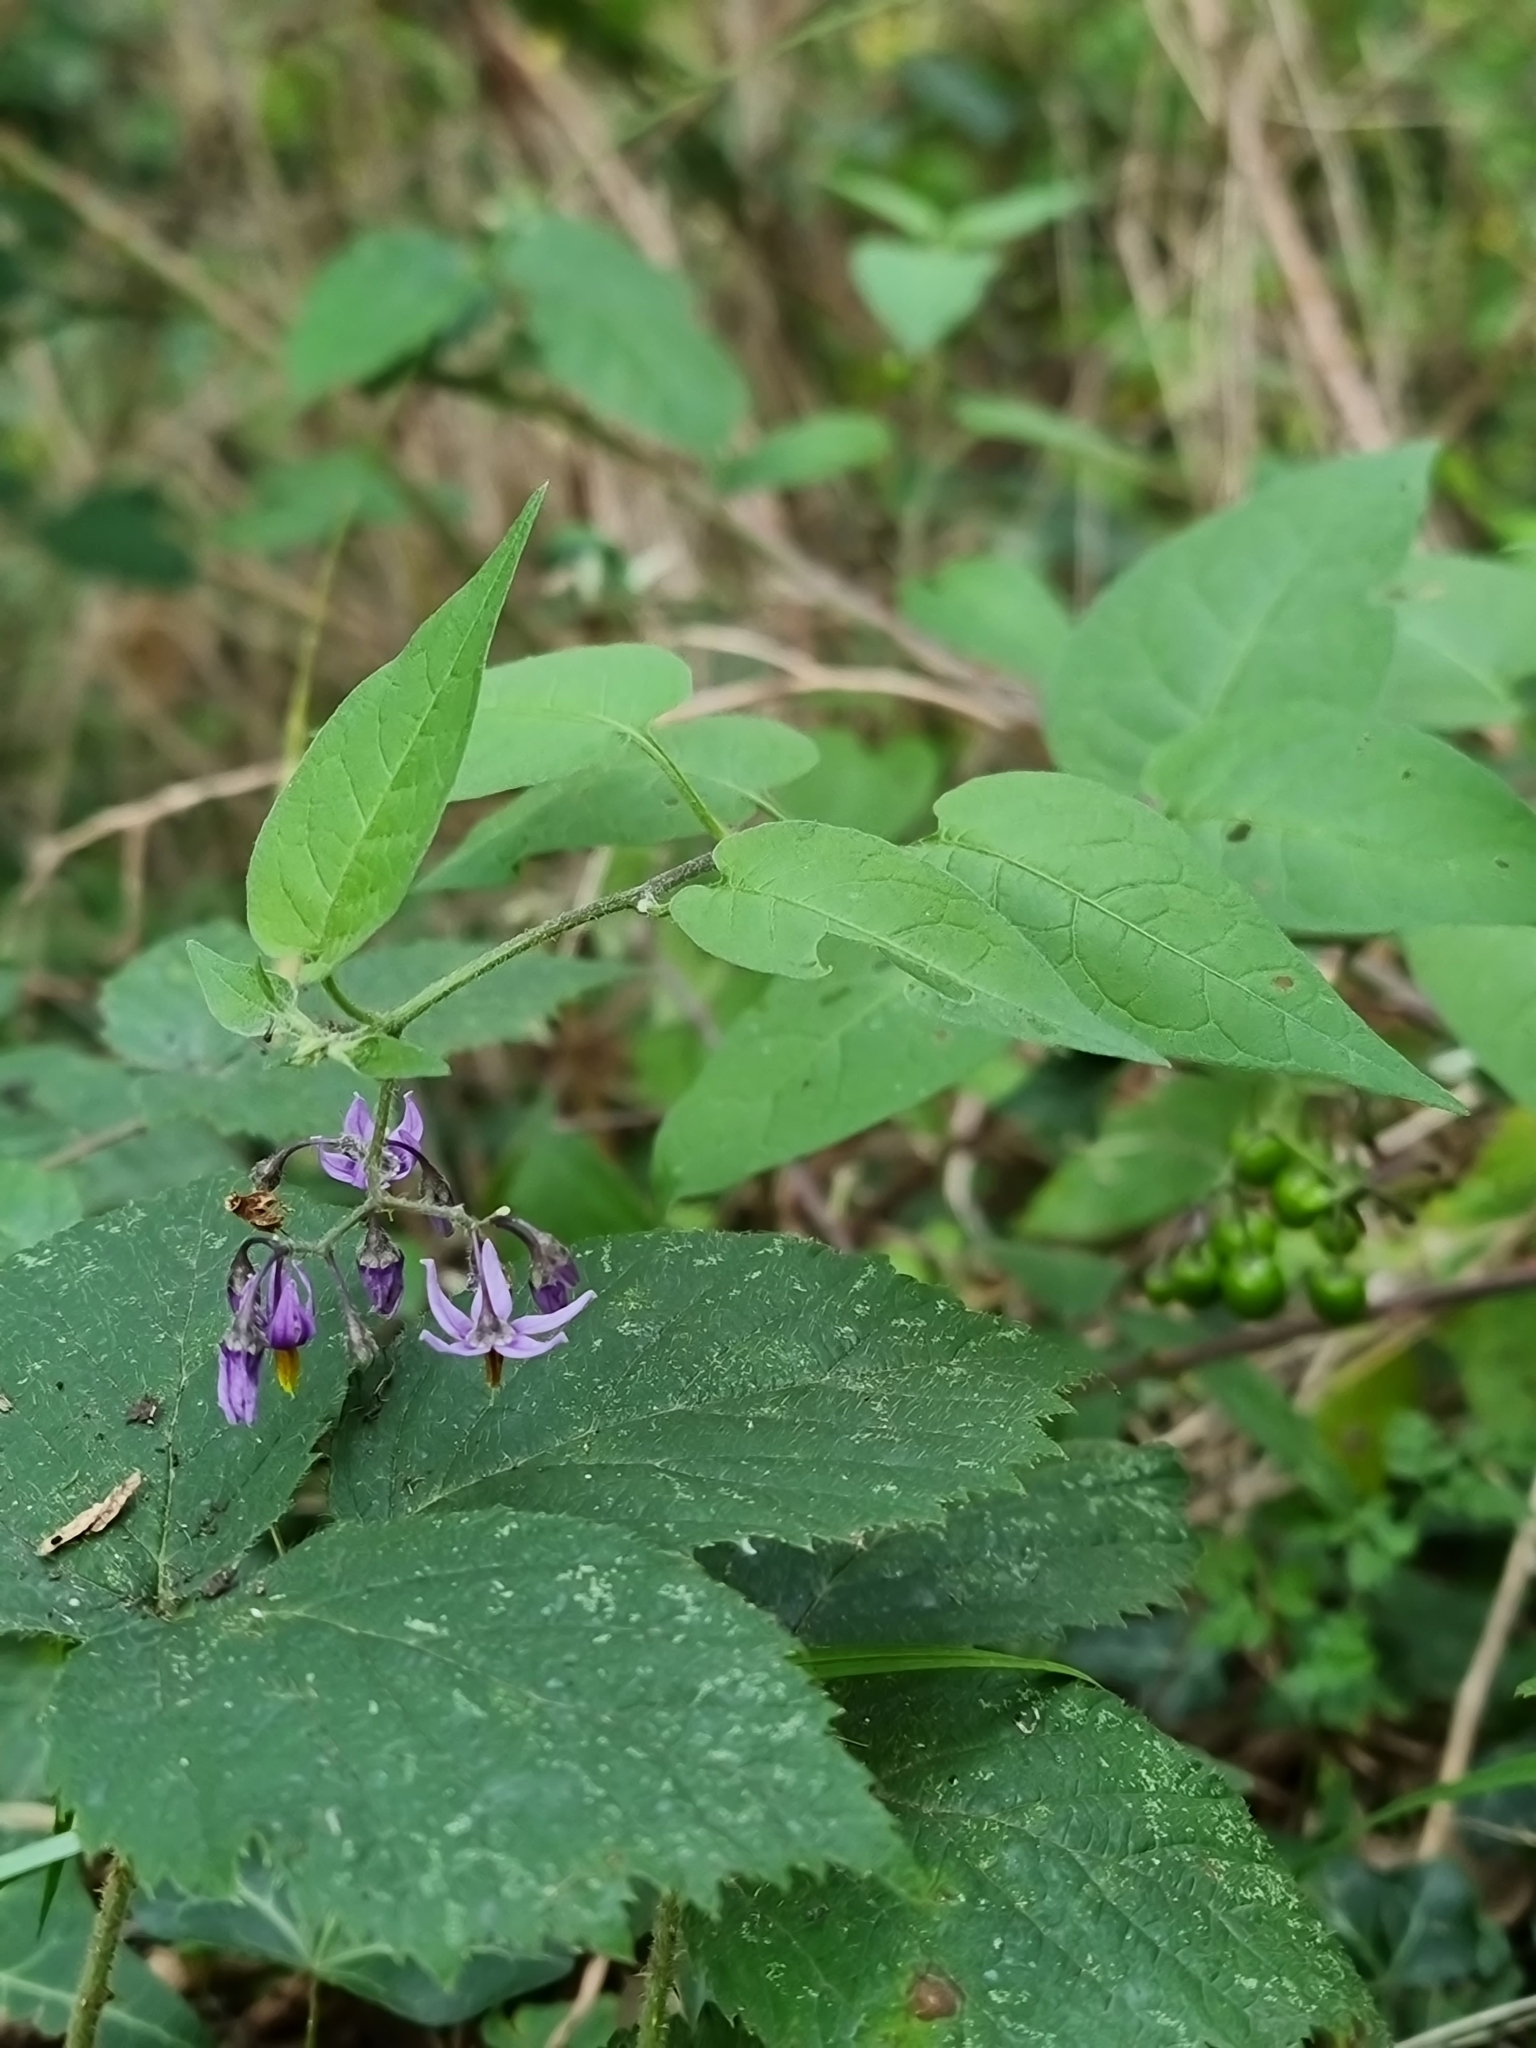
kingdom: Plantae
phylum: Tracheophyta
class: Magnoliopsida
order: Solanales
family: Solanaceae
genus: Solanum
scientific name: Solanum dulcamara
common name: Climbing nightshade
